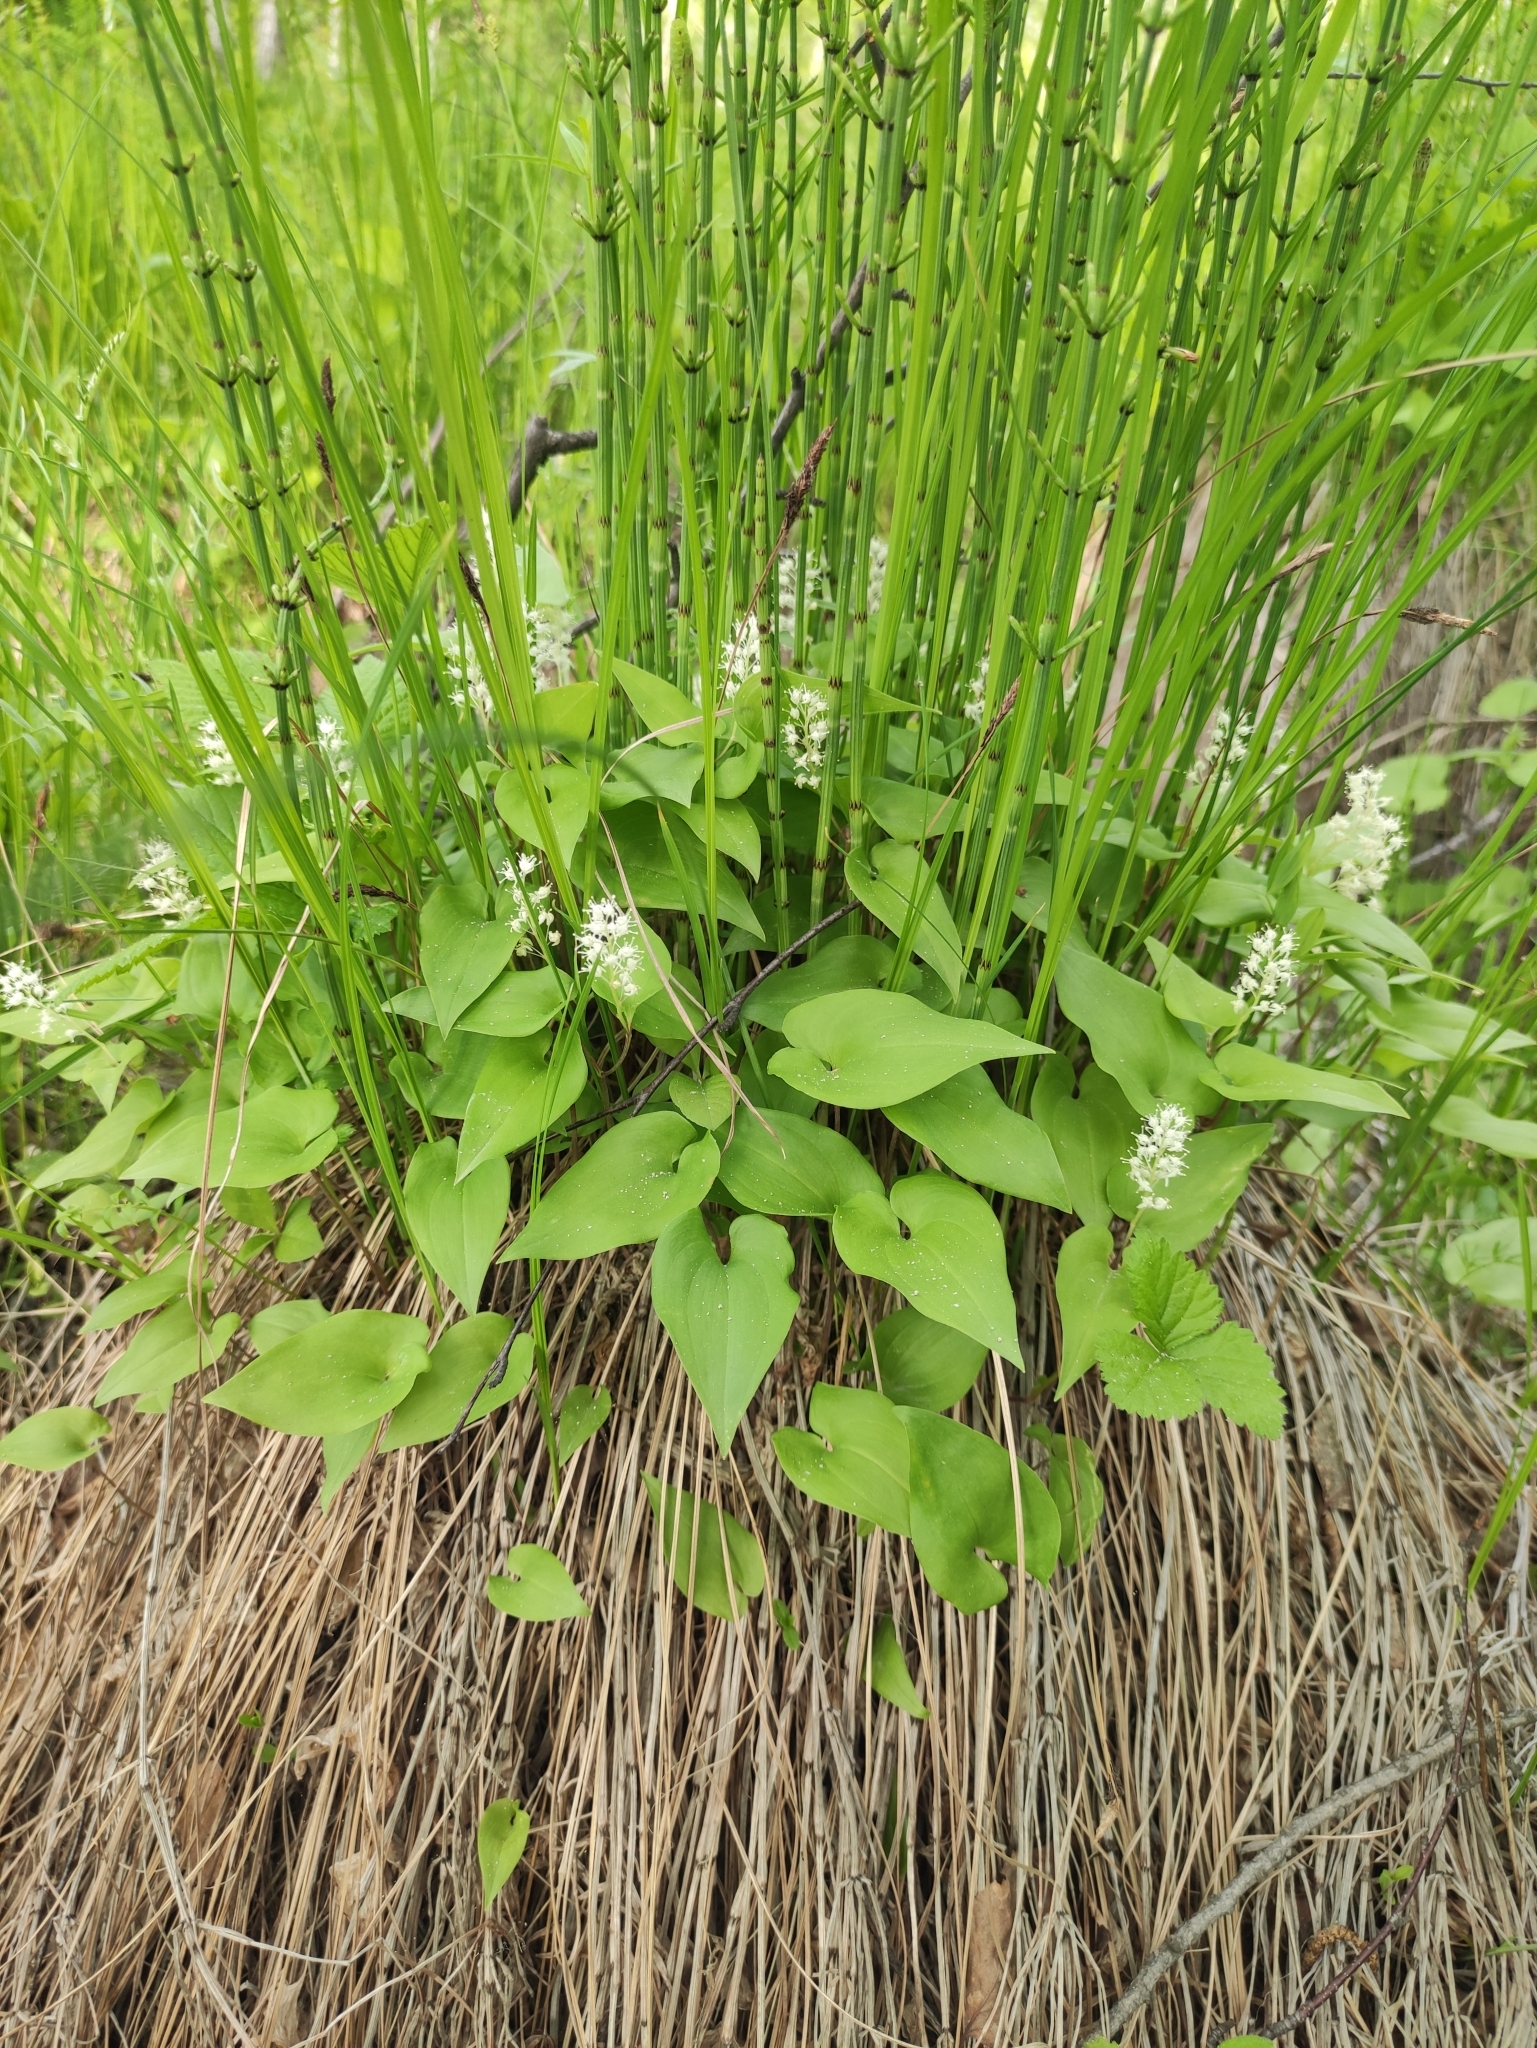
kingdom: Plantae
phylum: Tracheophyta
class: Liliopsida
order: Asparagales
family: Asparagaceae
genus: Maianthemum
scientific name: Maianthemum bifolium
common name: May lily
